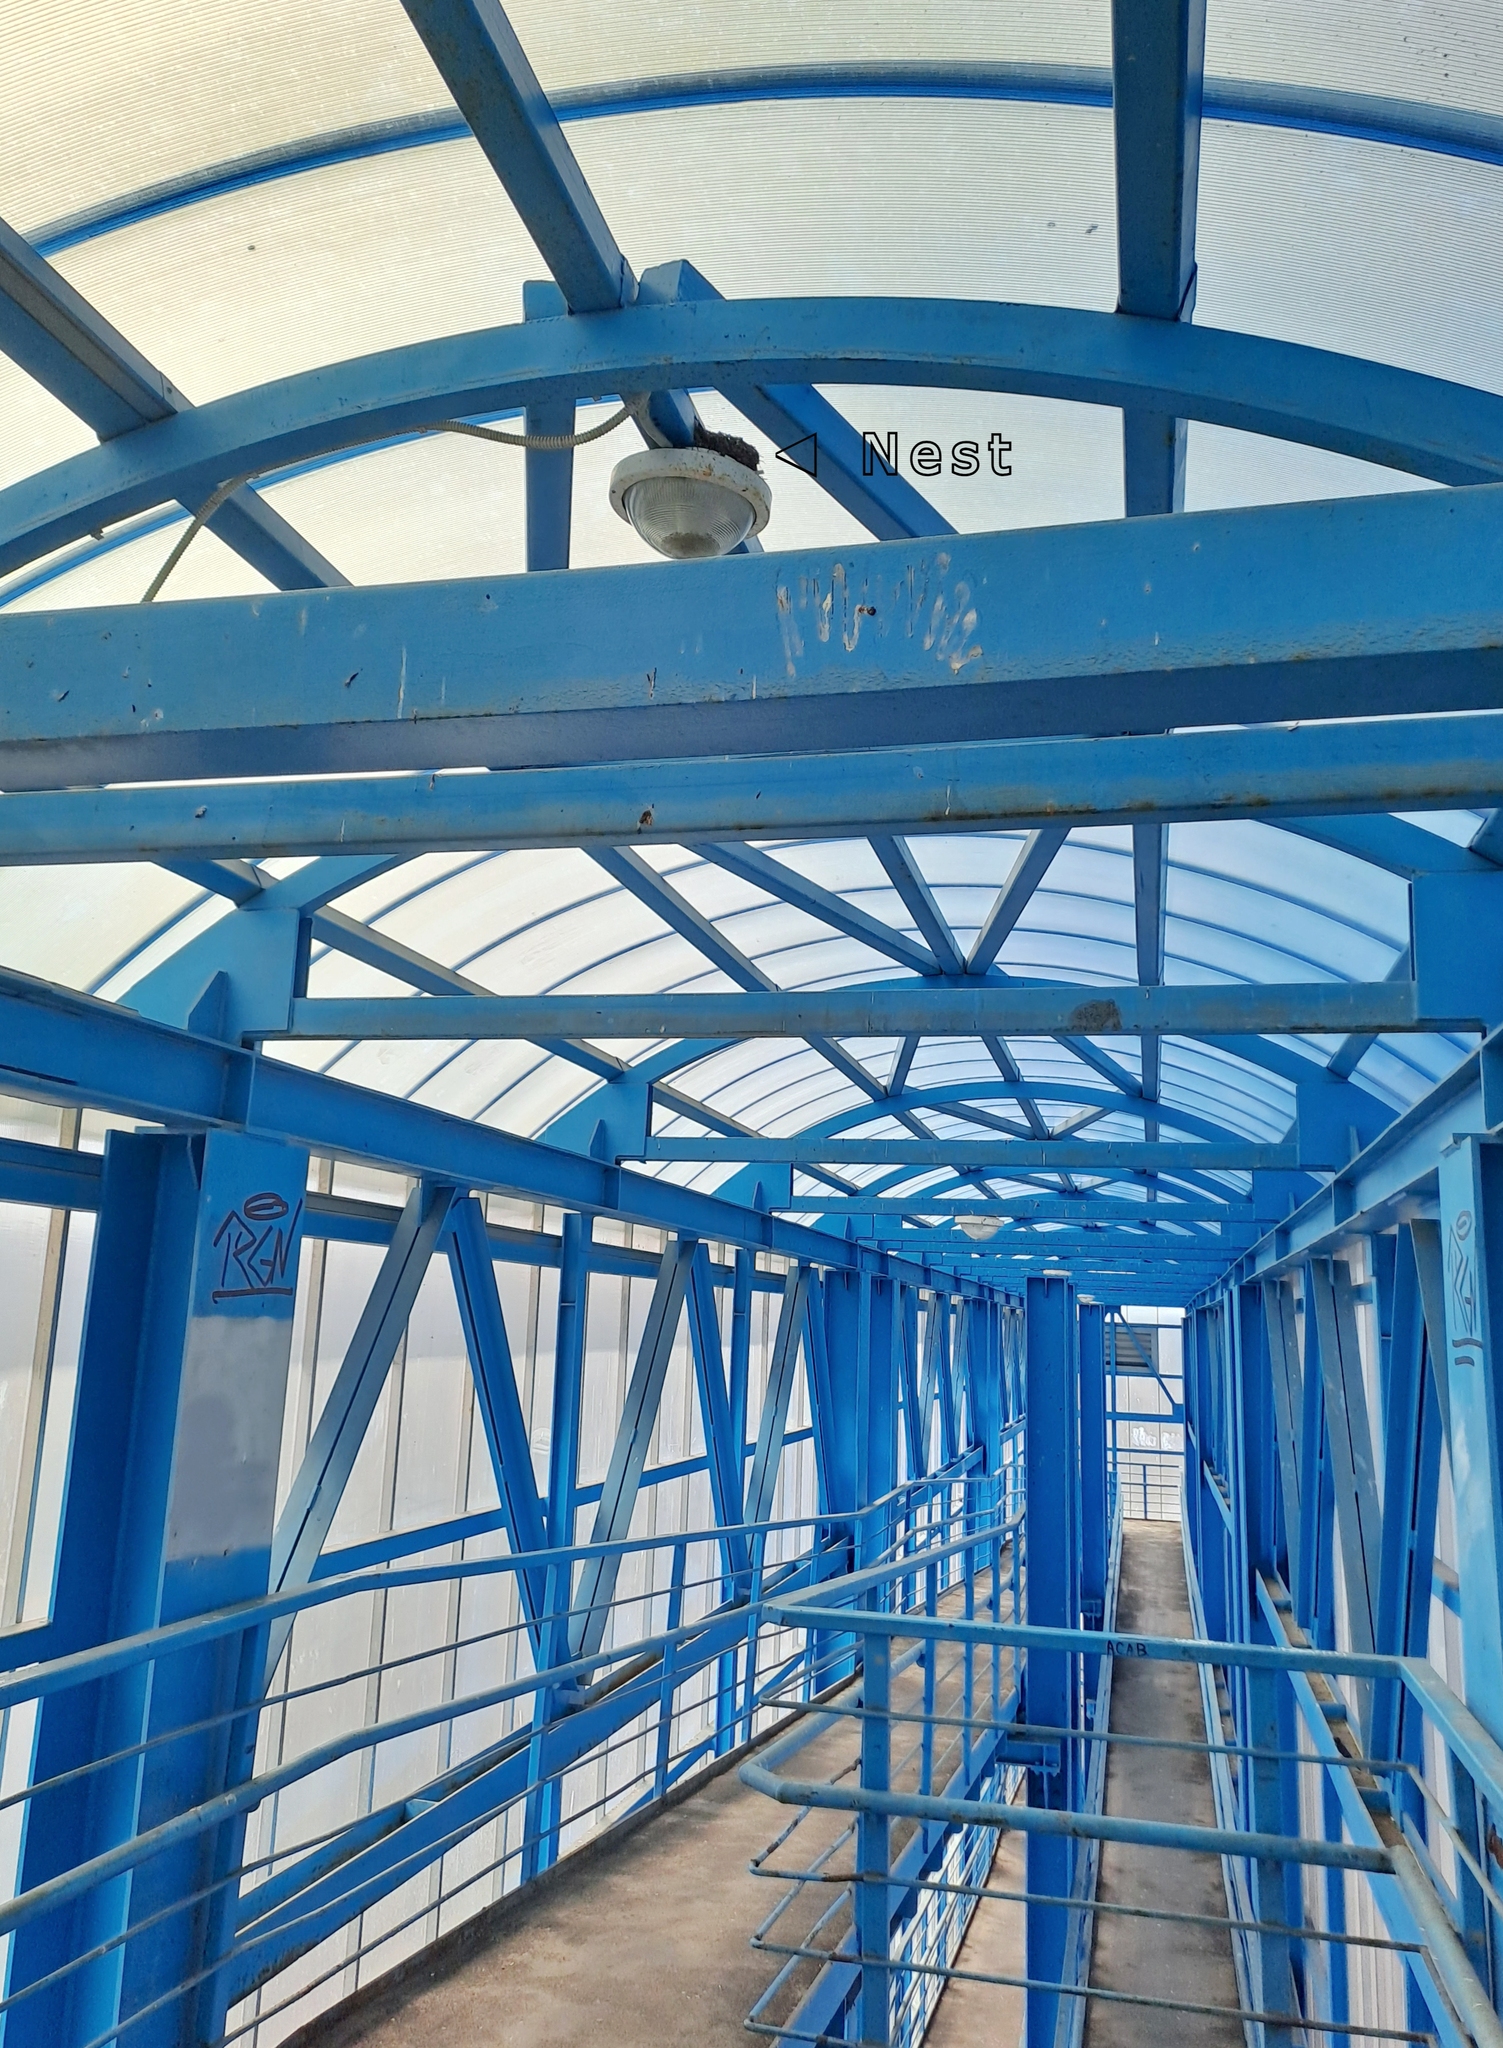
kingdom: Animalia
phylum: Chordata
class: Aves
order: Passeriformes
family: Hirundinidae
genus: Hirundo
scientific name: Hirundo rustica
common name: Barn swallow
